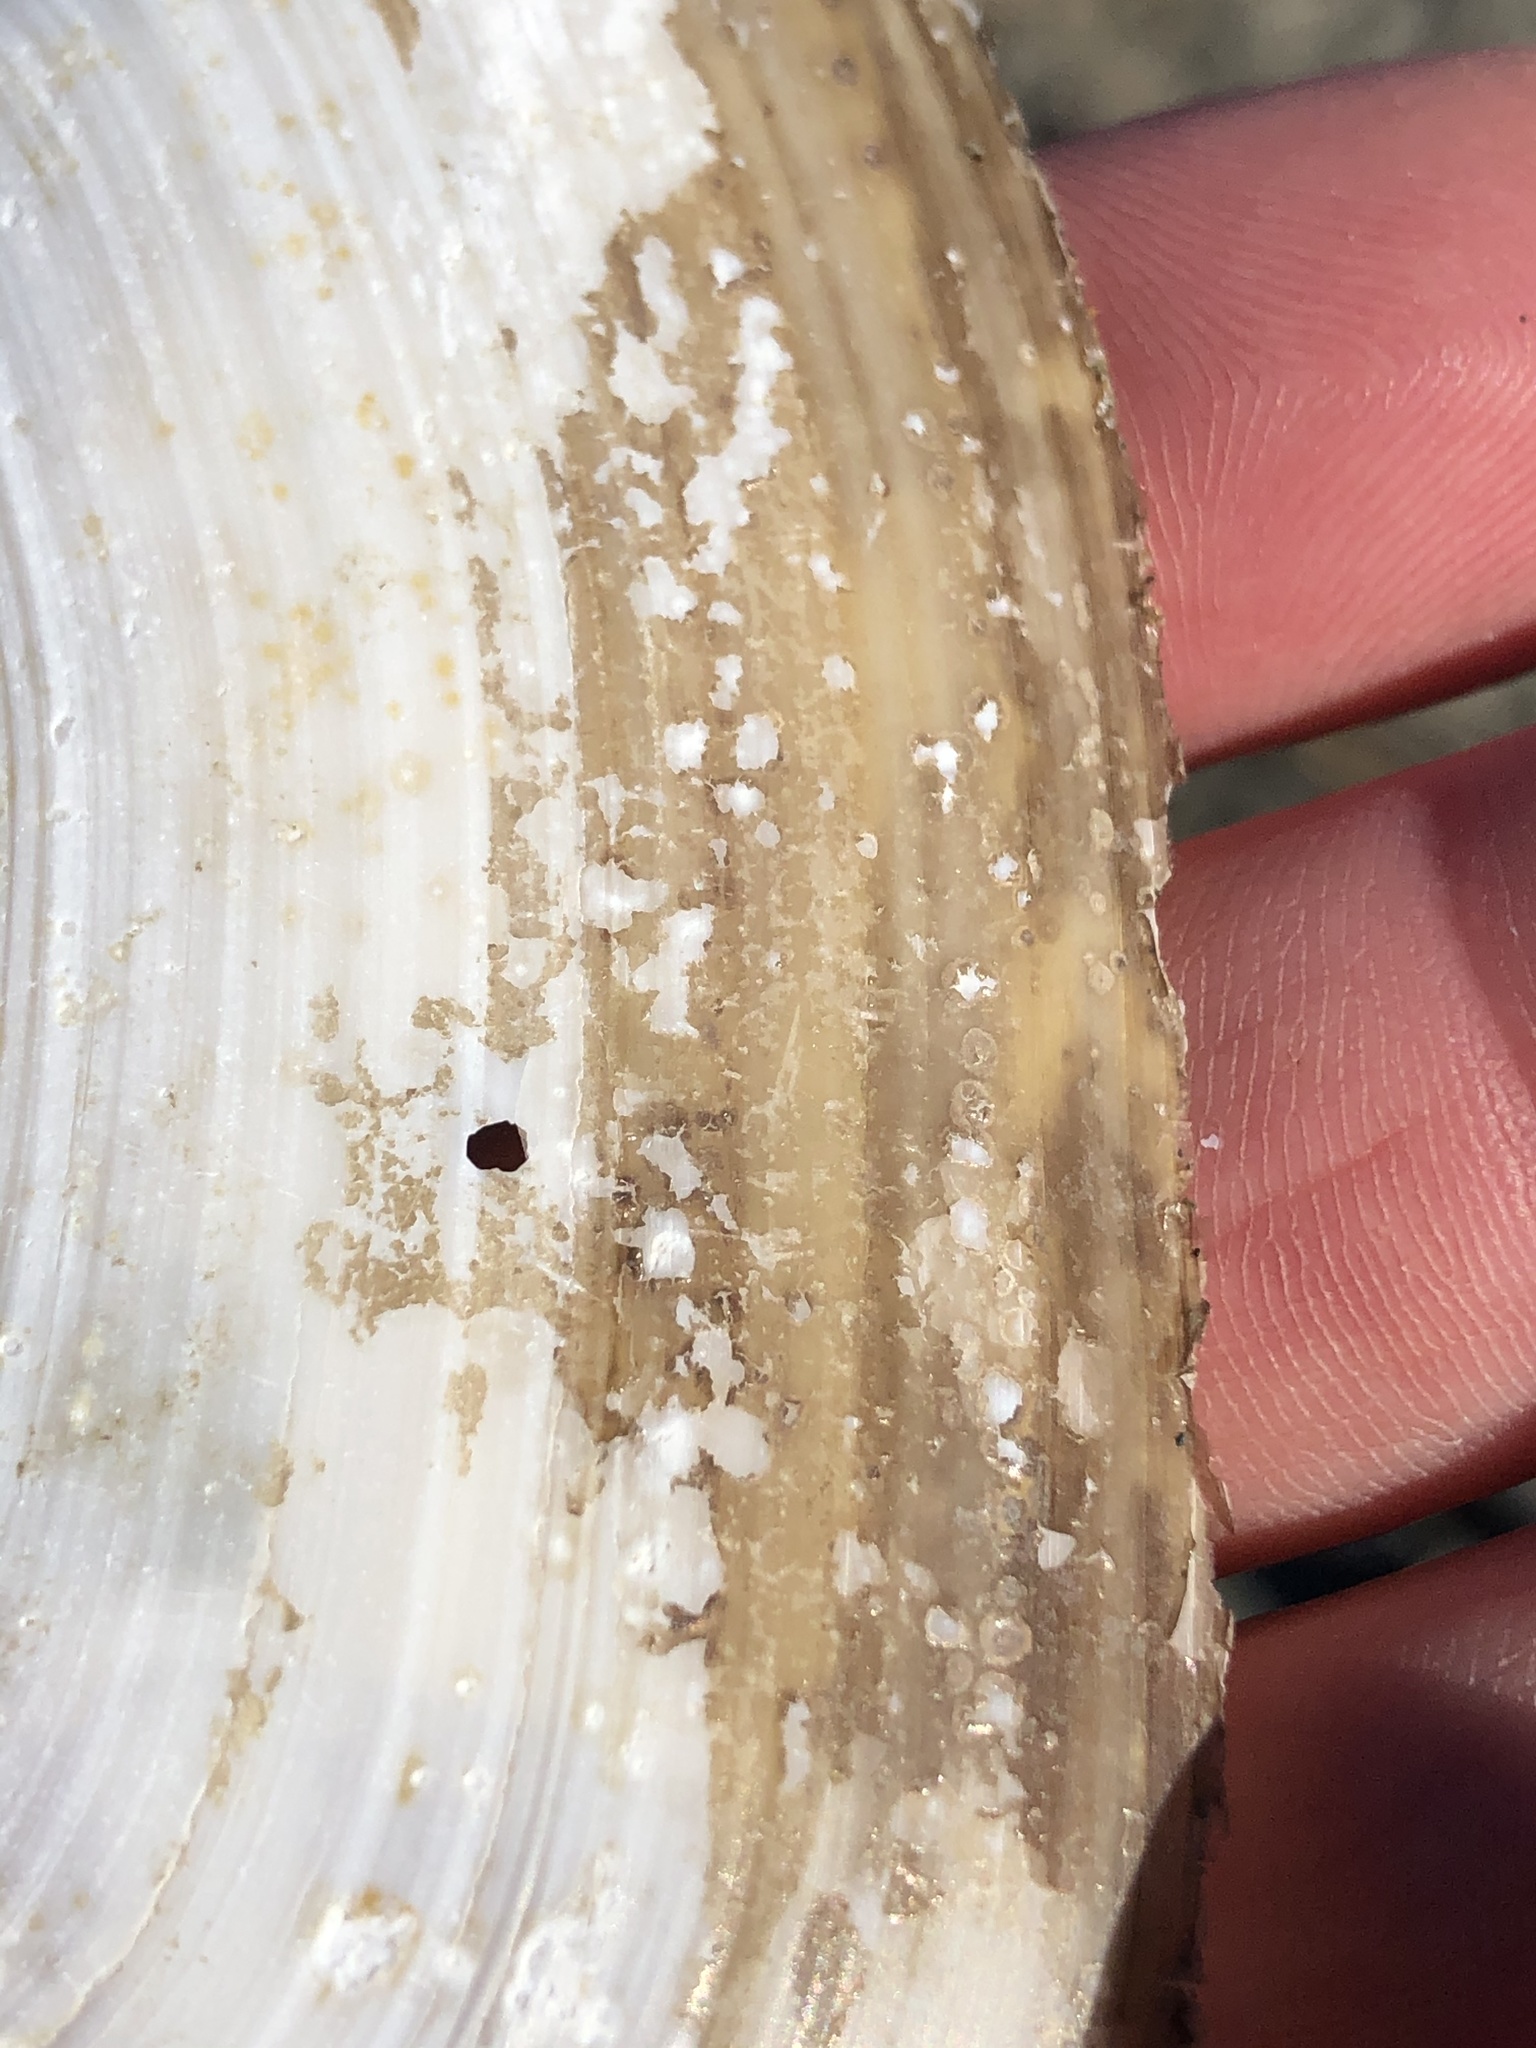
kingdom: Animalia
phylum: Mollusca
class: Bivalvia
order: Venerida
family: Mactridae
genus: Resania
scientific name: Resania lanceolata
